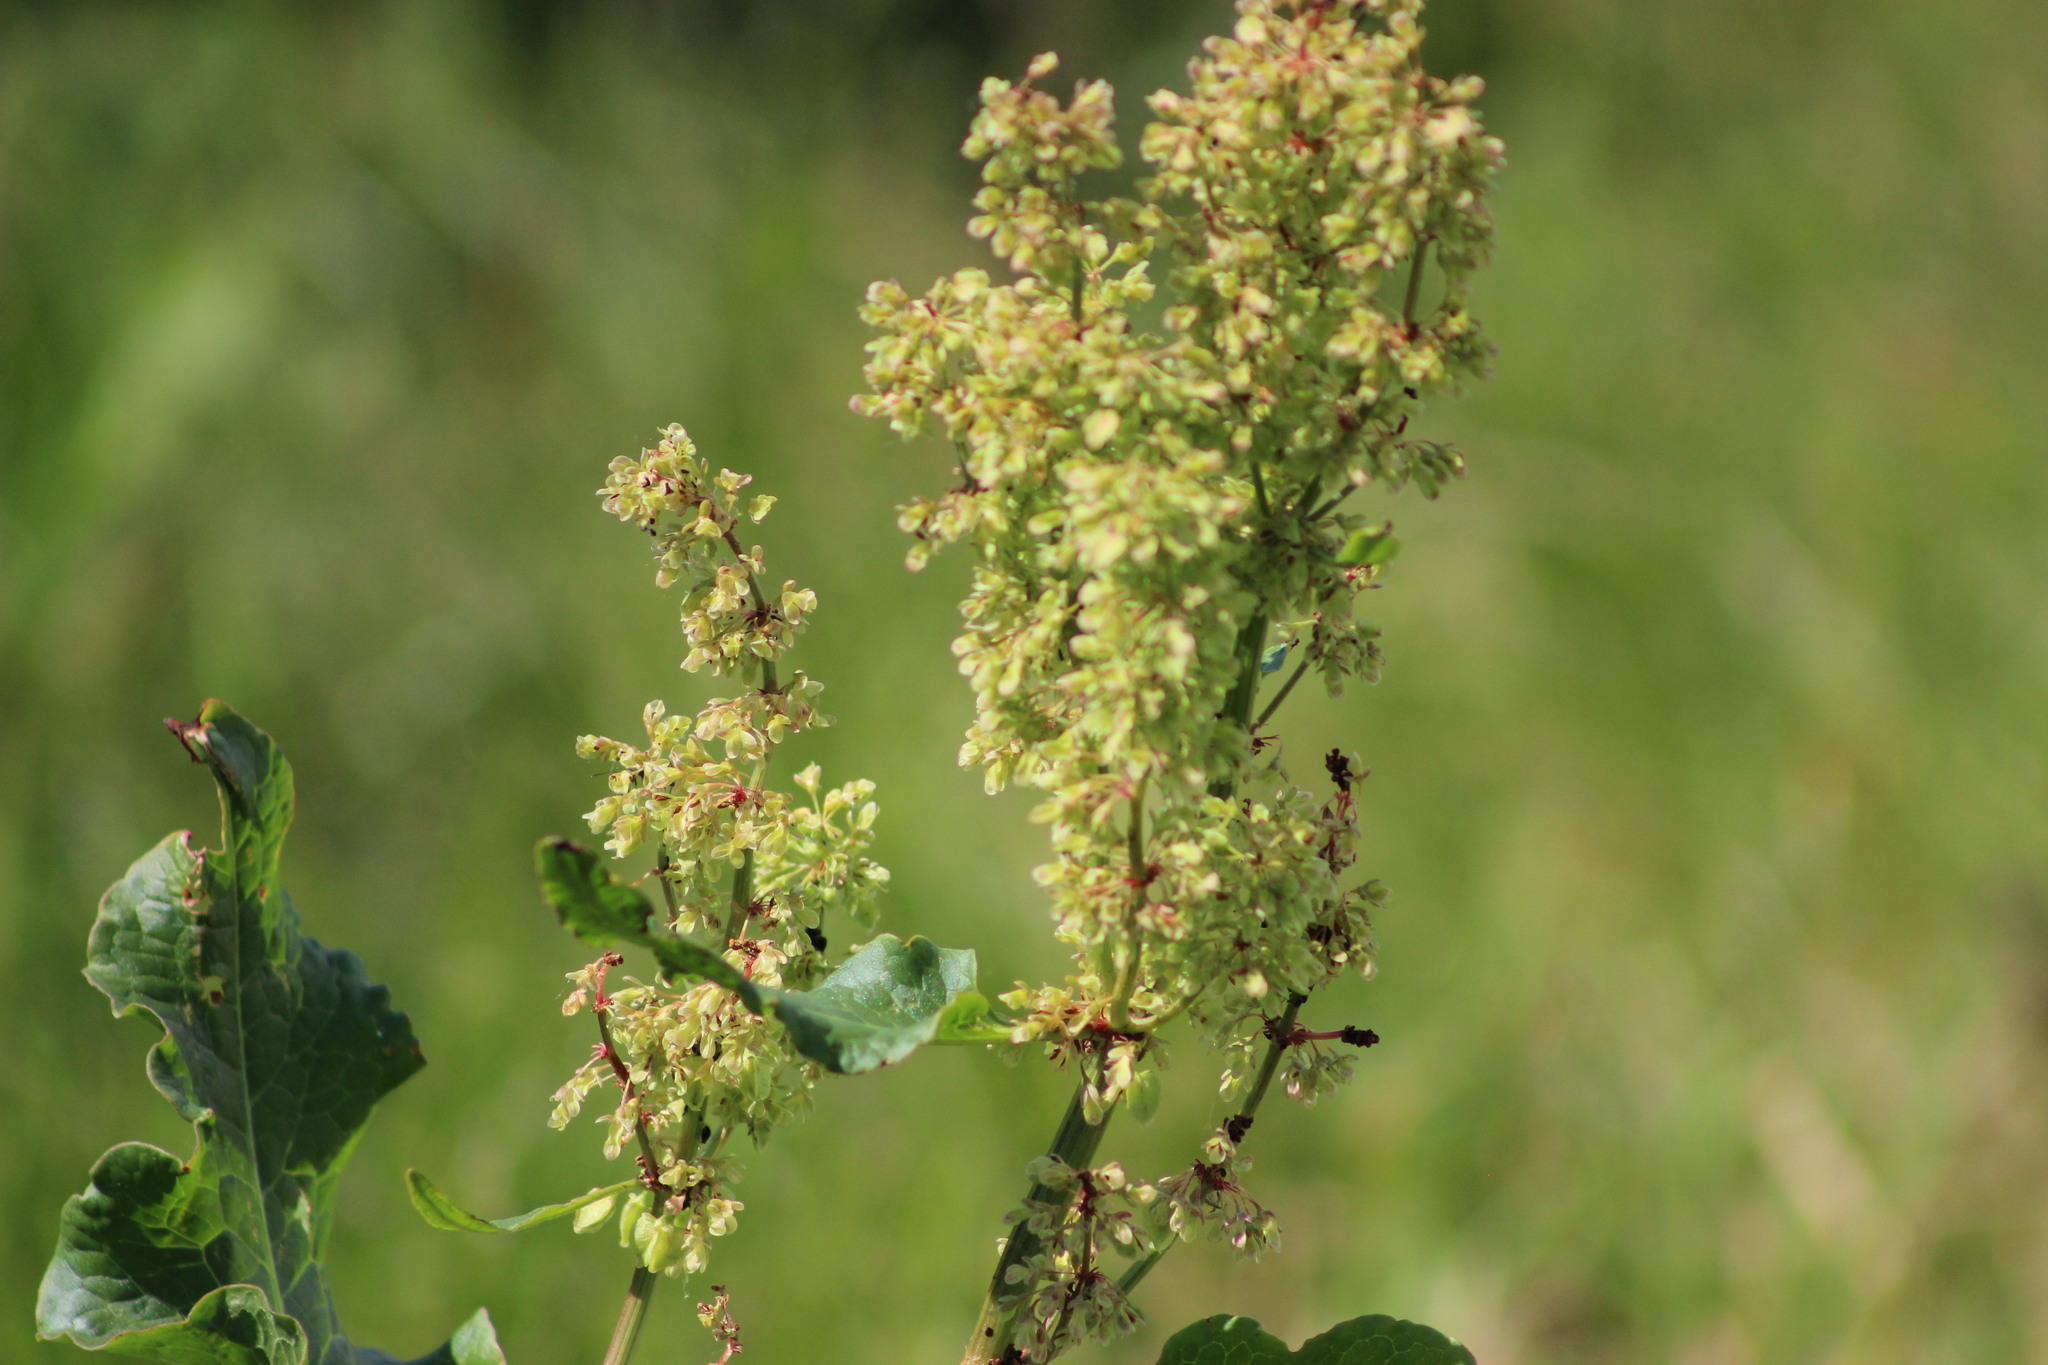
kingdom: Plantae
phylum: Tracheophyta
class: Magnoliopsida
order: Caryophyllales
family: Polygonaceae
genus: Rumex
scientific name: Rumex confertus
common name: Russian dock
